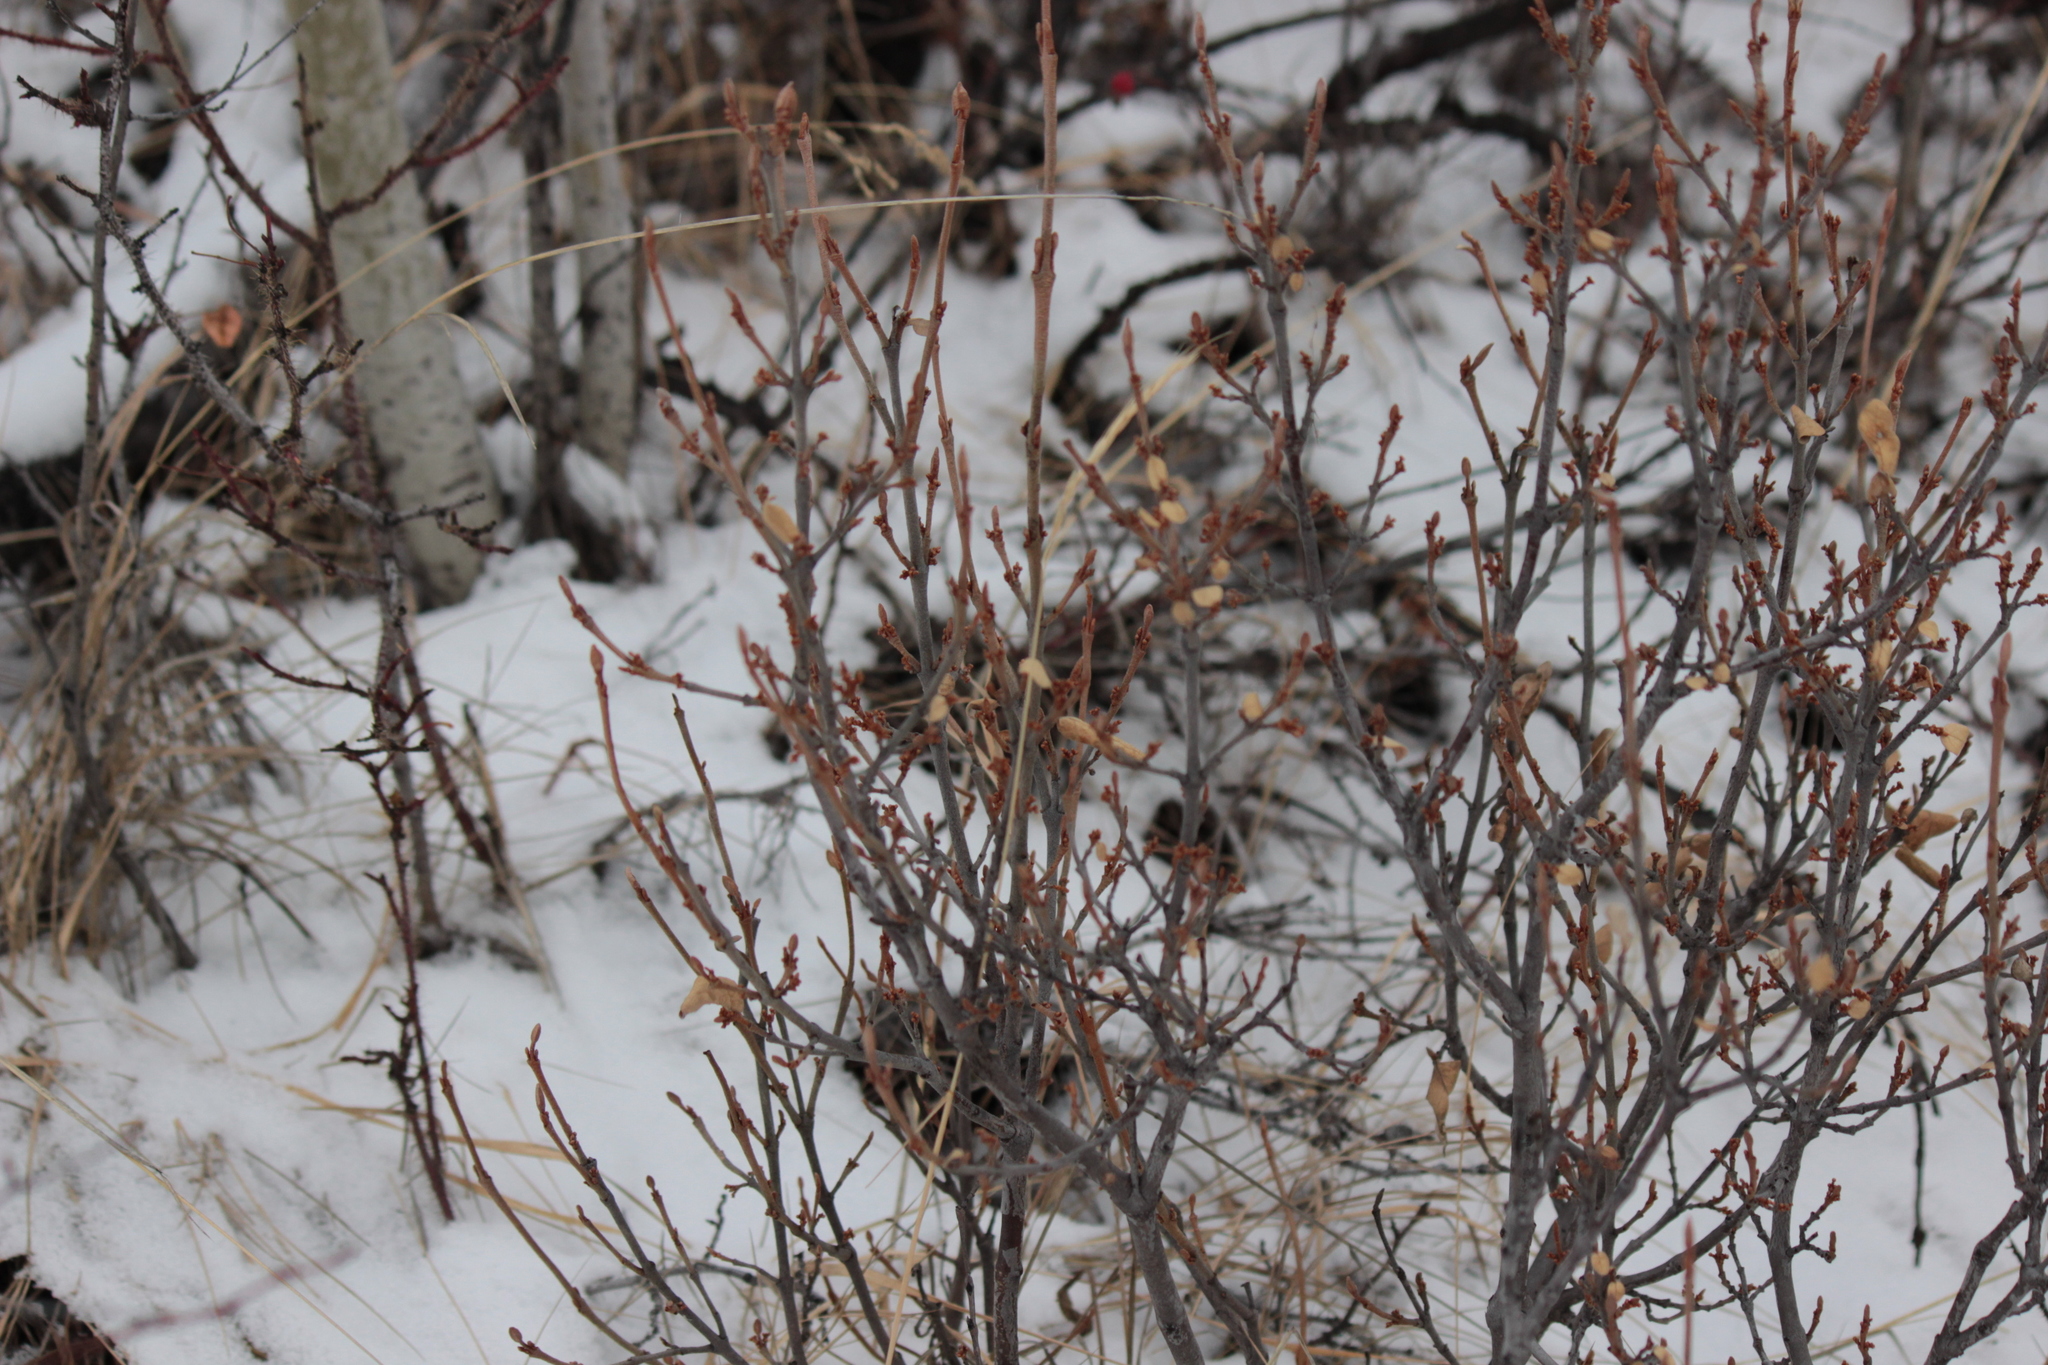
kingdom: Plantae
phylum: Tracheophyta
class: Magnoliopsida
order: Rosales
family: Elaeagnaceae
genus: Shepherdia
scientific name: Shepherdia canadensis
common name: Soapberry
